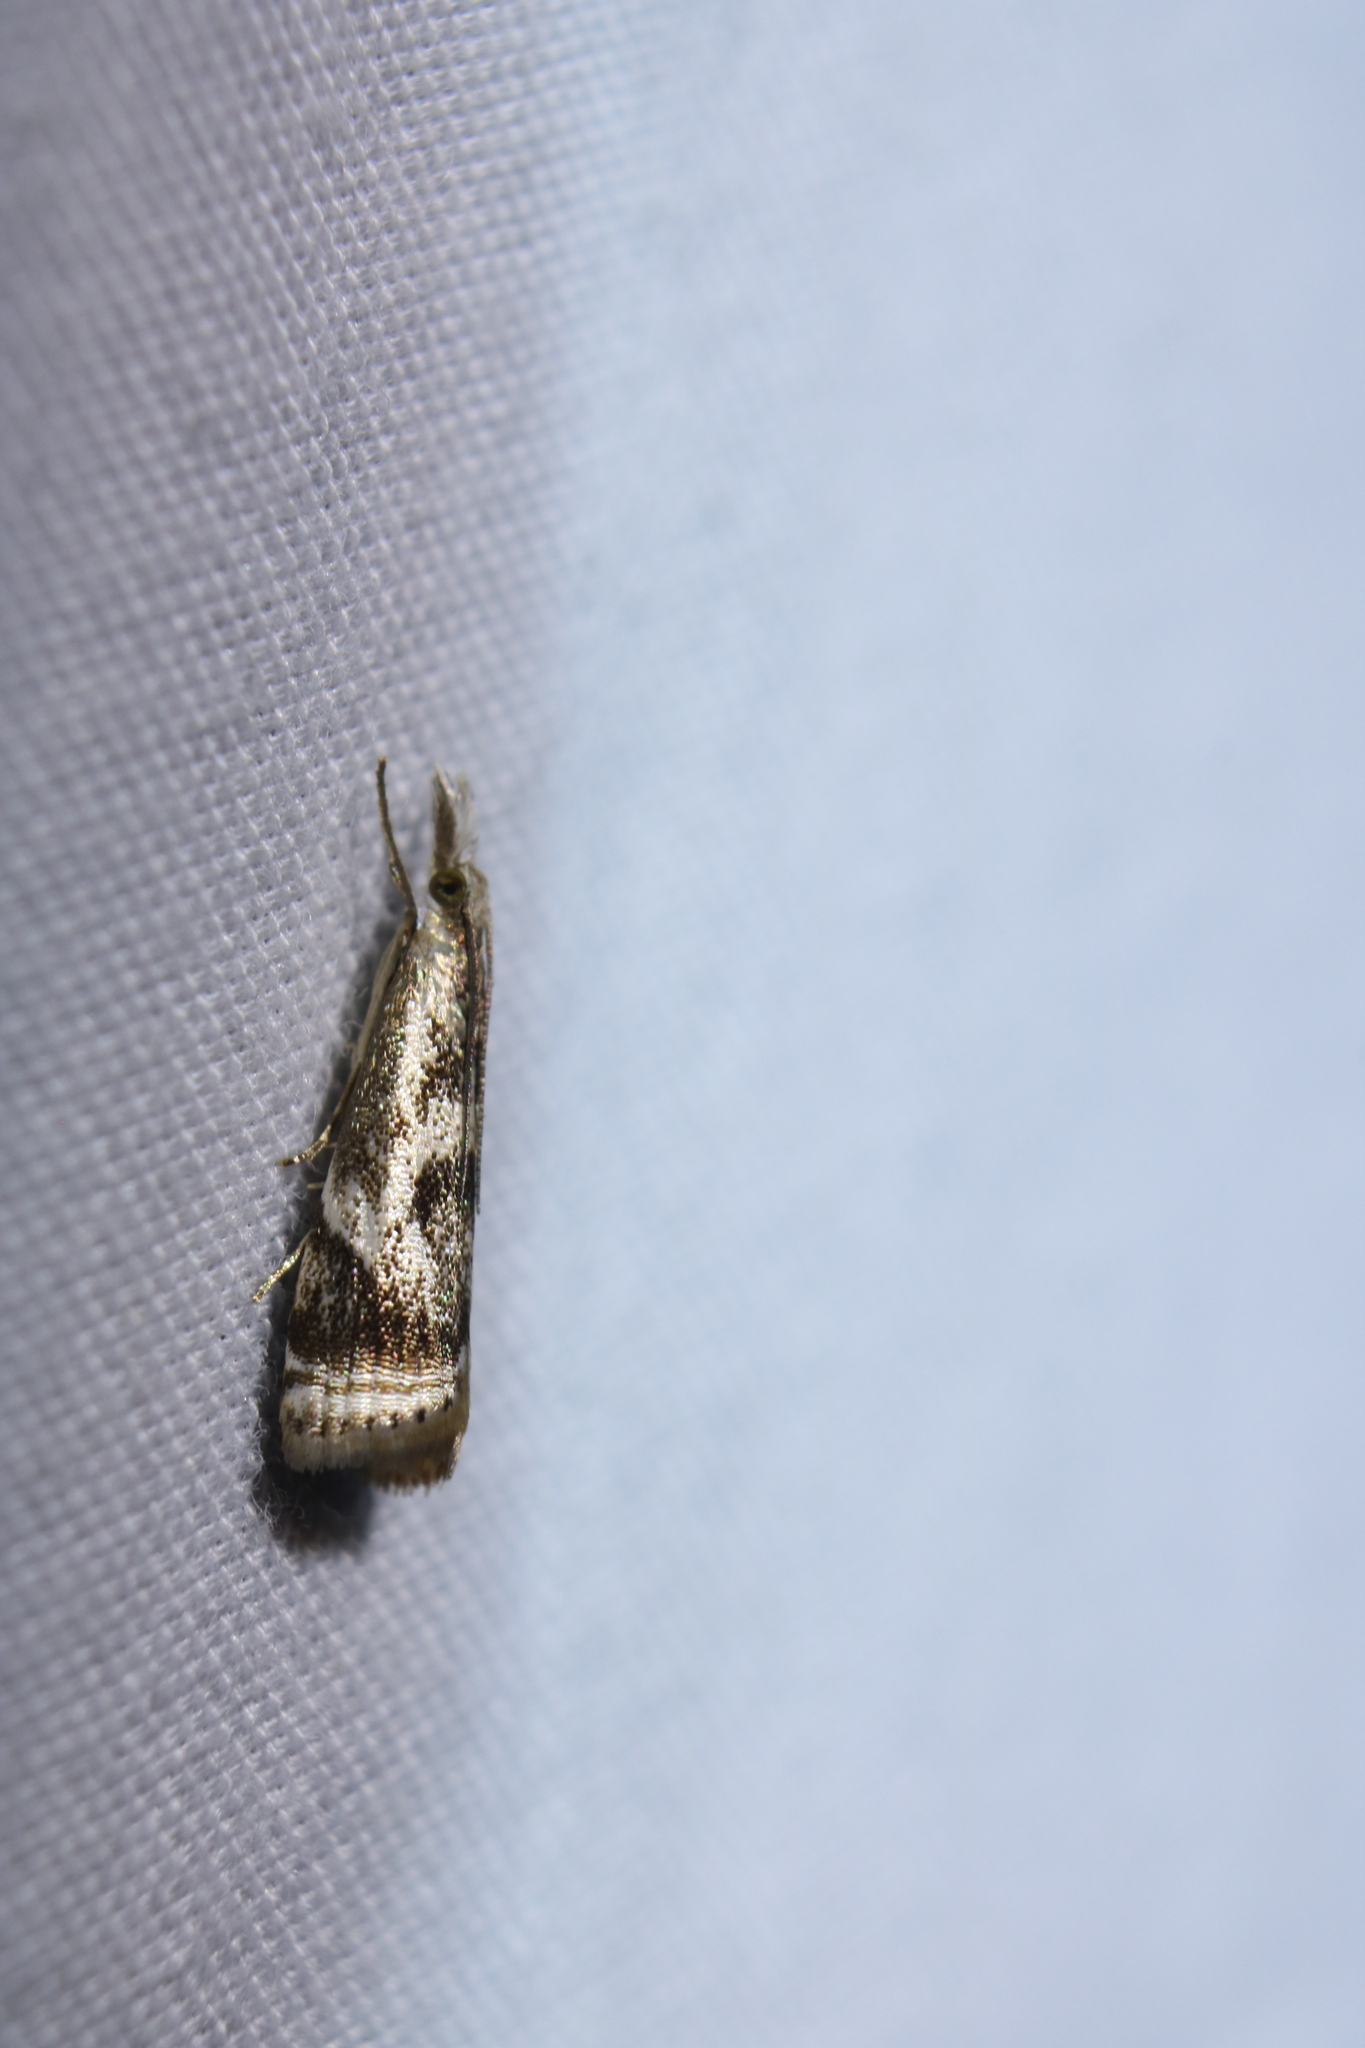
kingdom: Animalia
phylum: Arthropoda
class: Insecta
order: Lepidoptera
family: Crambidae
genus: Microcrambus
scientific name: Microcrambus elegans
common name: Elegant grass-veneer
